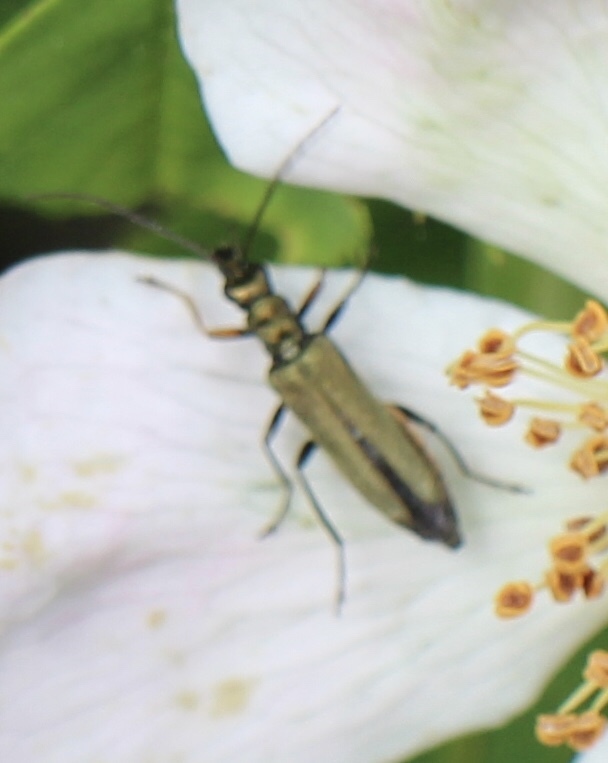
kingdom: Animalia
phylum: Arthropoda
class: Insecta
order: Coleoptera
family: Oedemeridae
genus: Oedemera
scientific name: Oedemera flavipes
